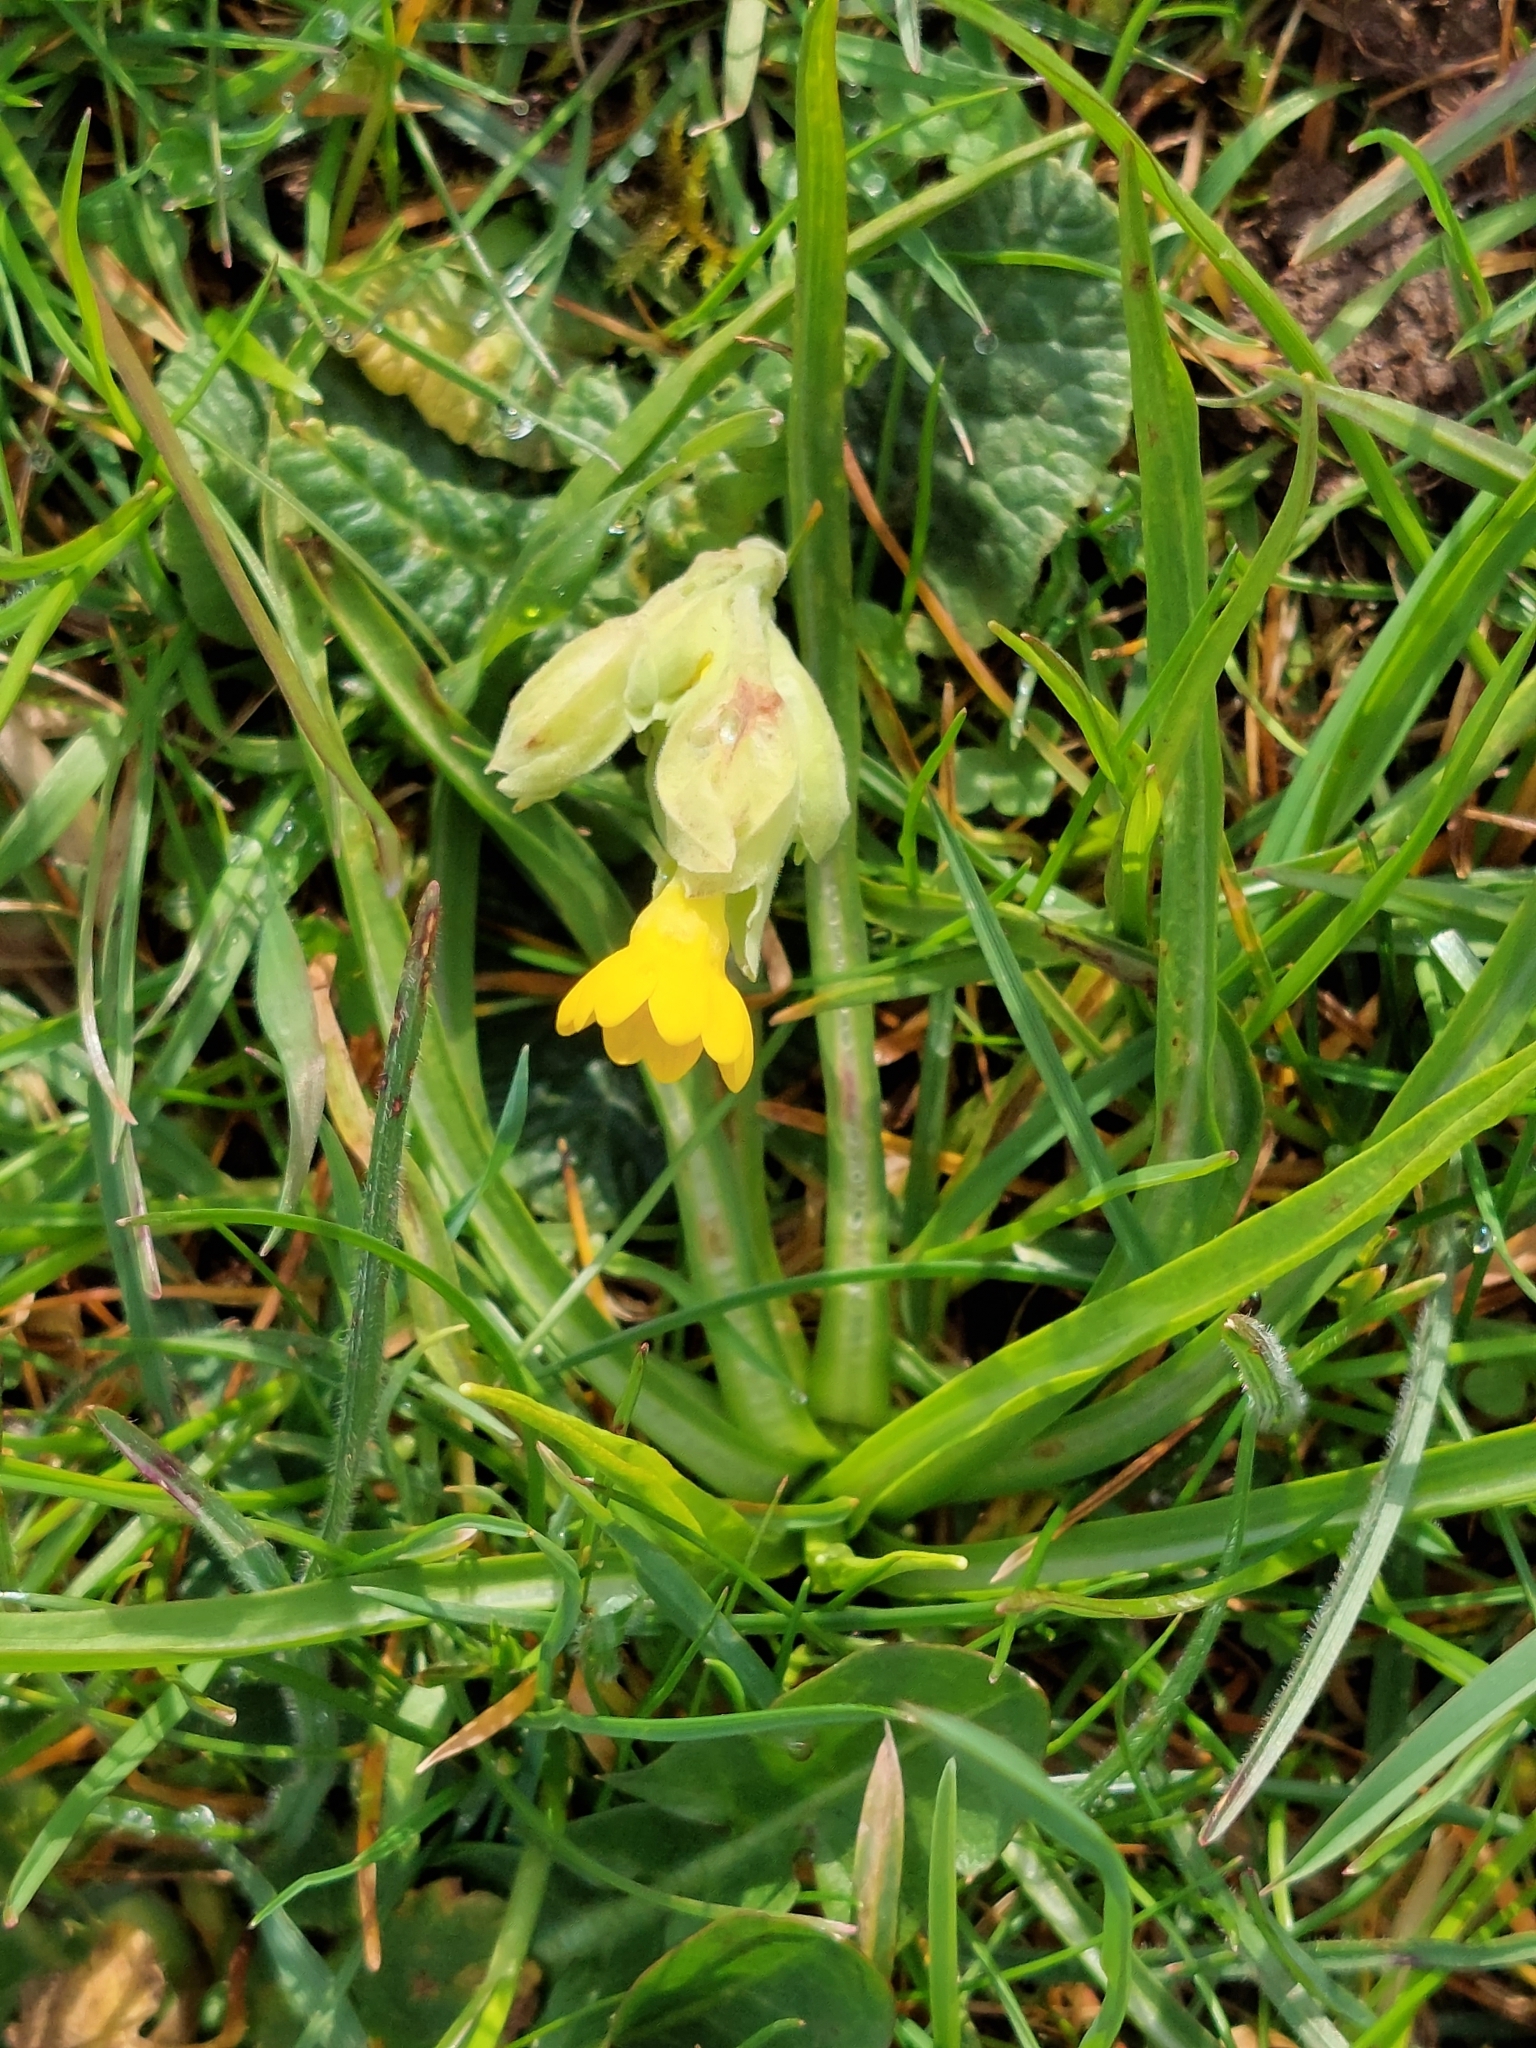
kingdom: Plantae
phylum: Tracheophyta
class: Magnoliopsida
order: Ericales
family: Primulaceae
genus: Primula
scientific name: Primula veris
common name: Cowslip
